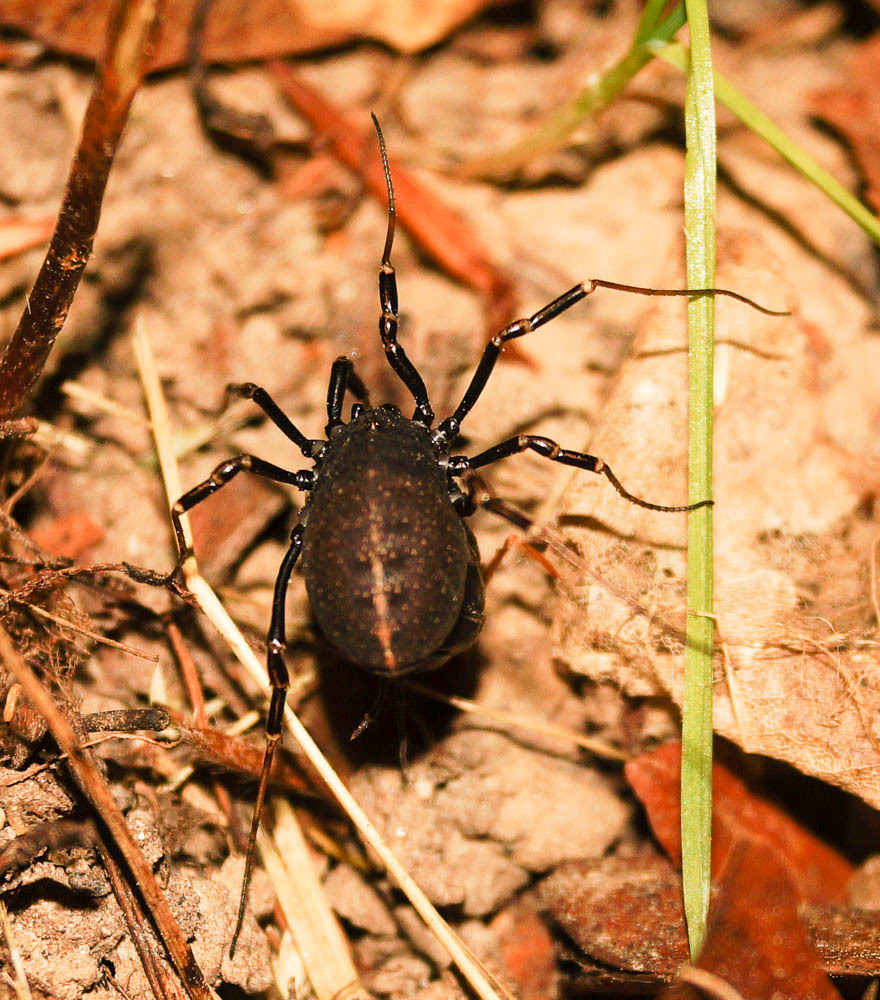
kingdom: Animalia
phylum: Arthropoda
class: Arachnida
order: Opiliones
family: Phalangiidae
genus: Egaenus
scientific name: Egaenus convexus
